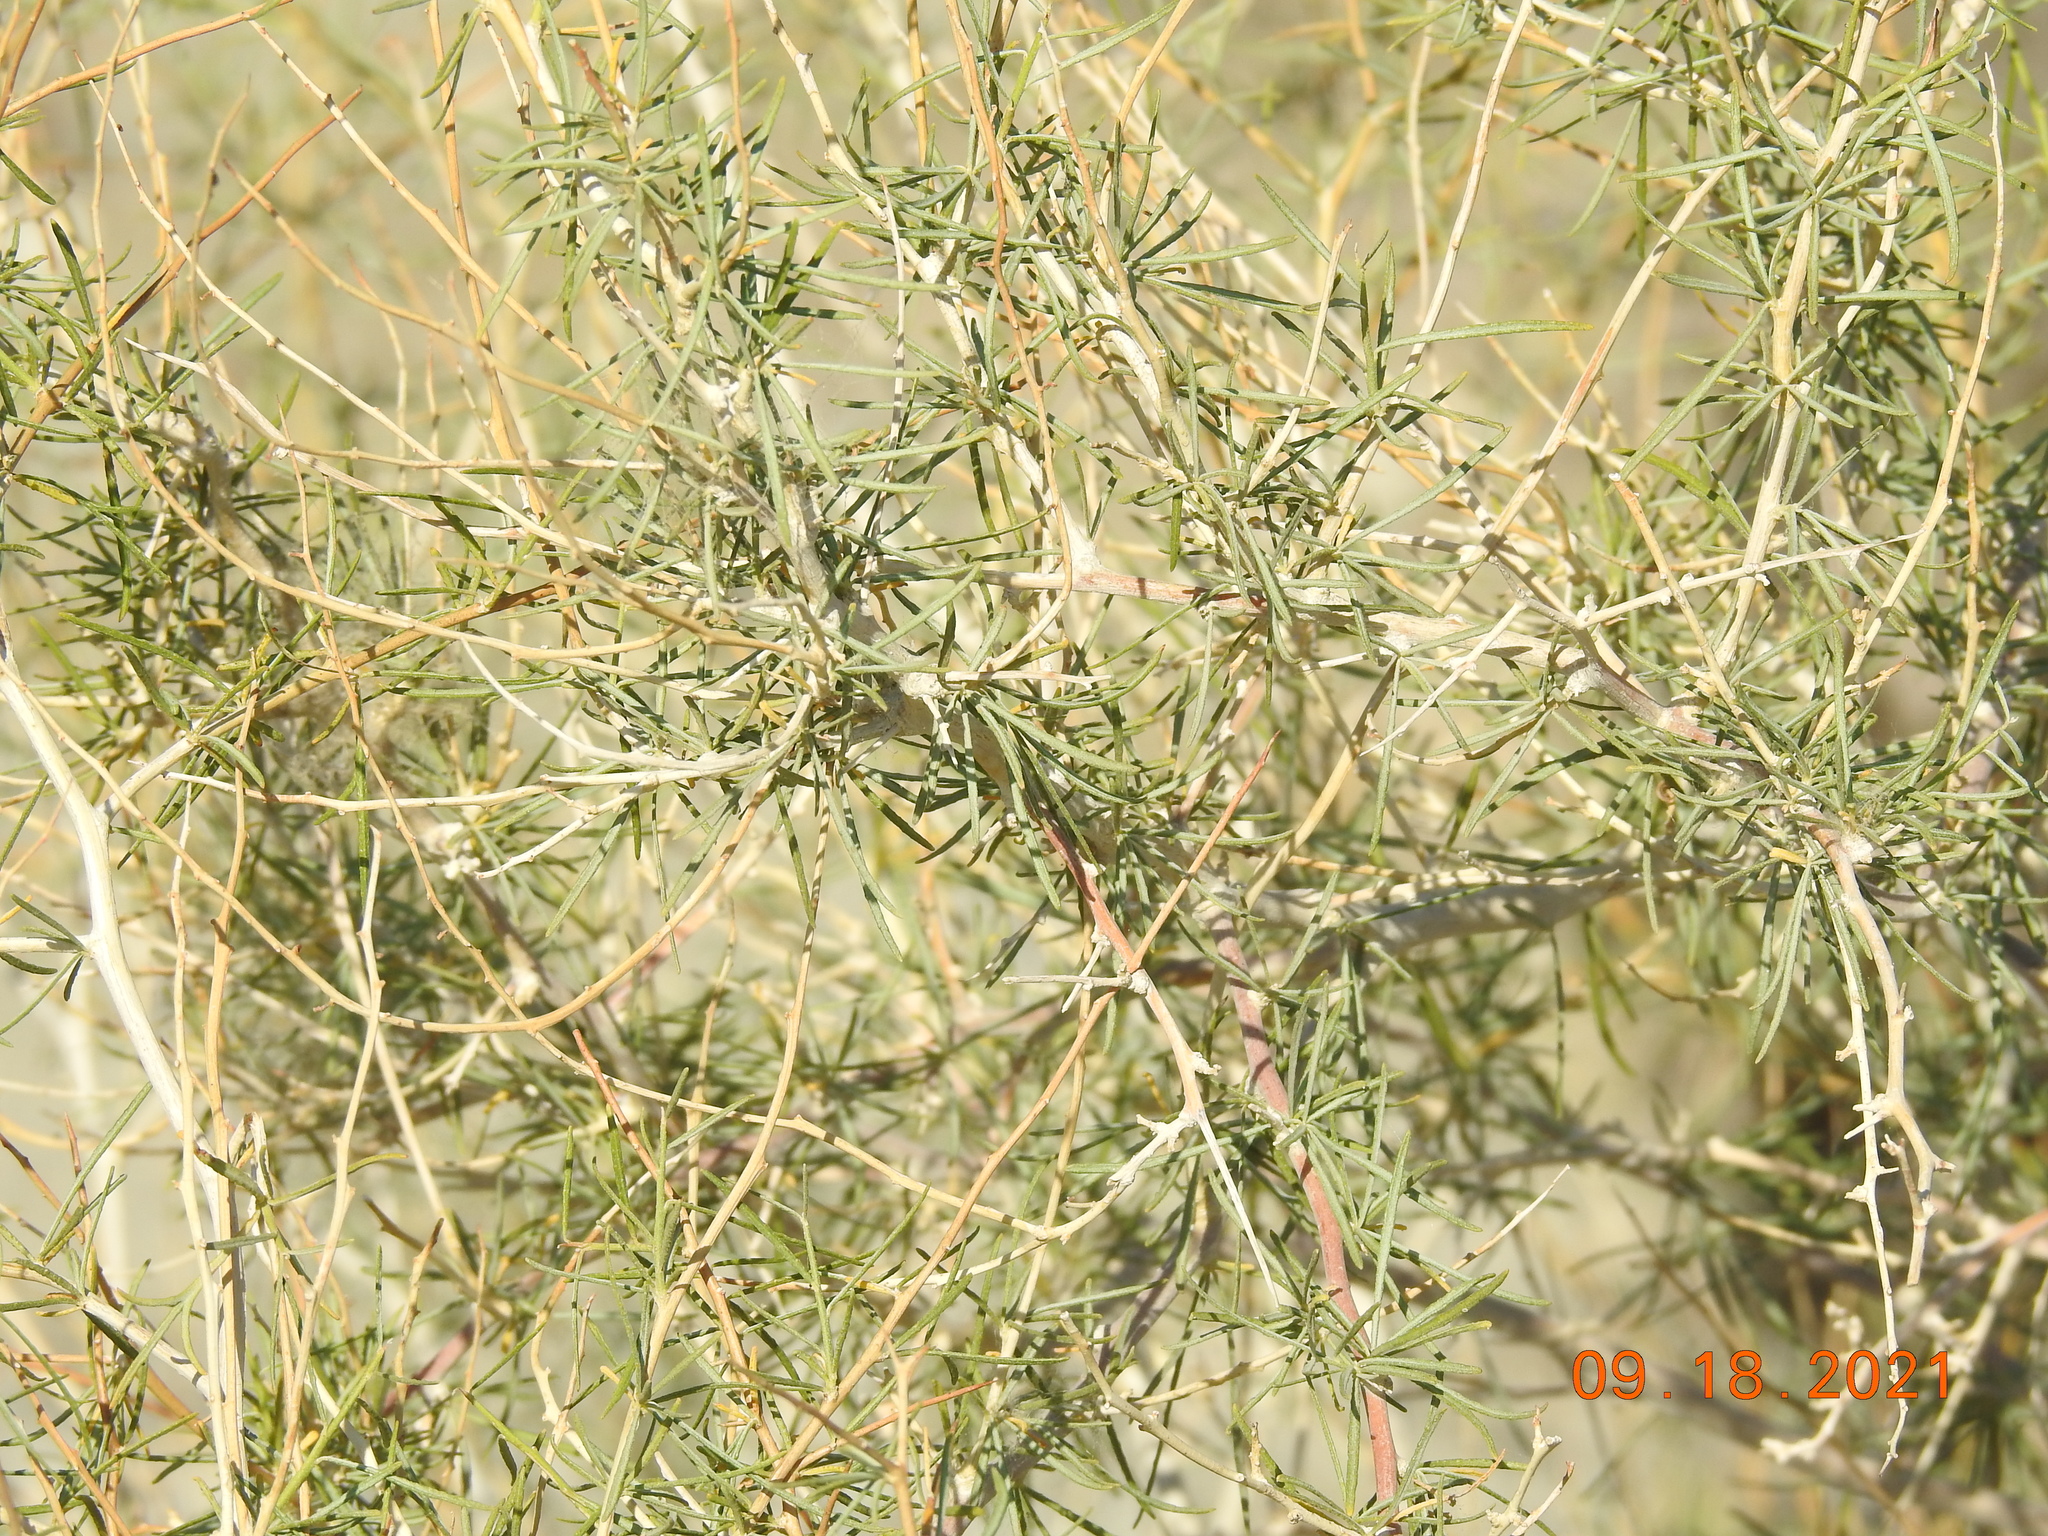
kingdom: Plantae
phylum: Tracheophyta
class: Magnoliopsida
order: Fabales
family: Fabaceae
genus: Psorothamnus
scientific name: Psorothamnus schottii
